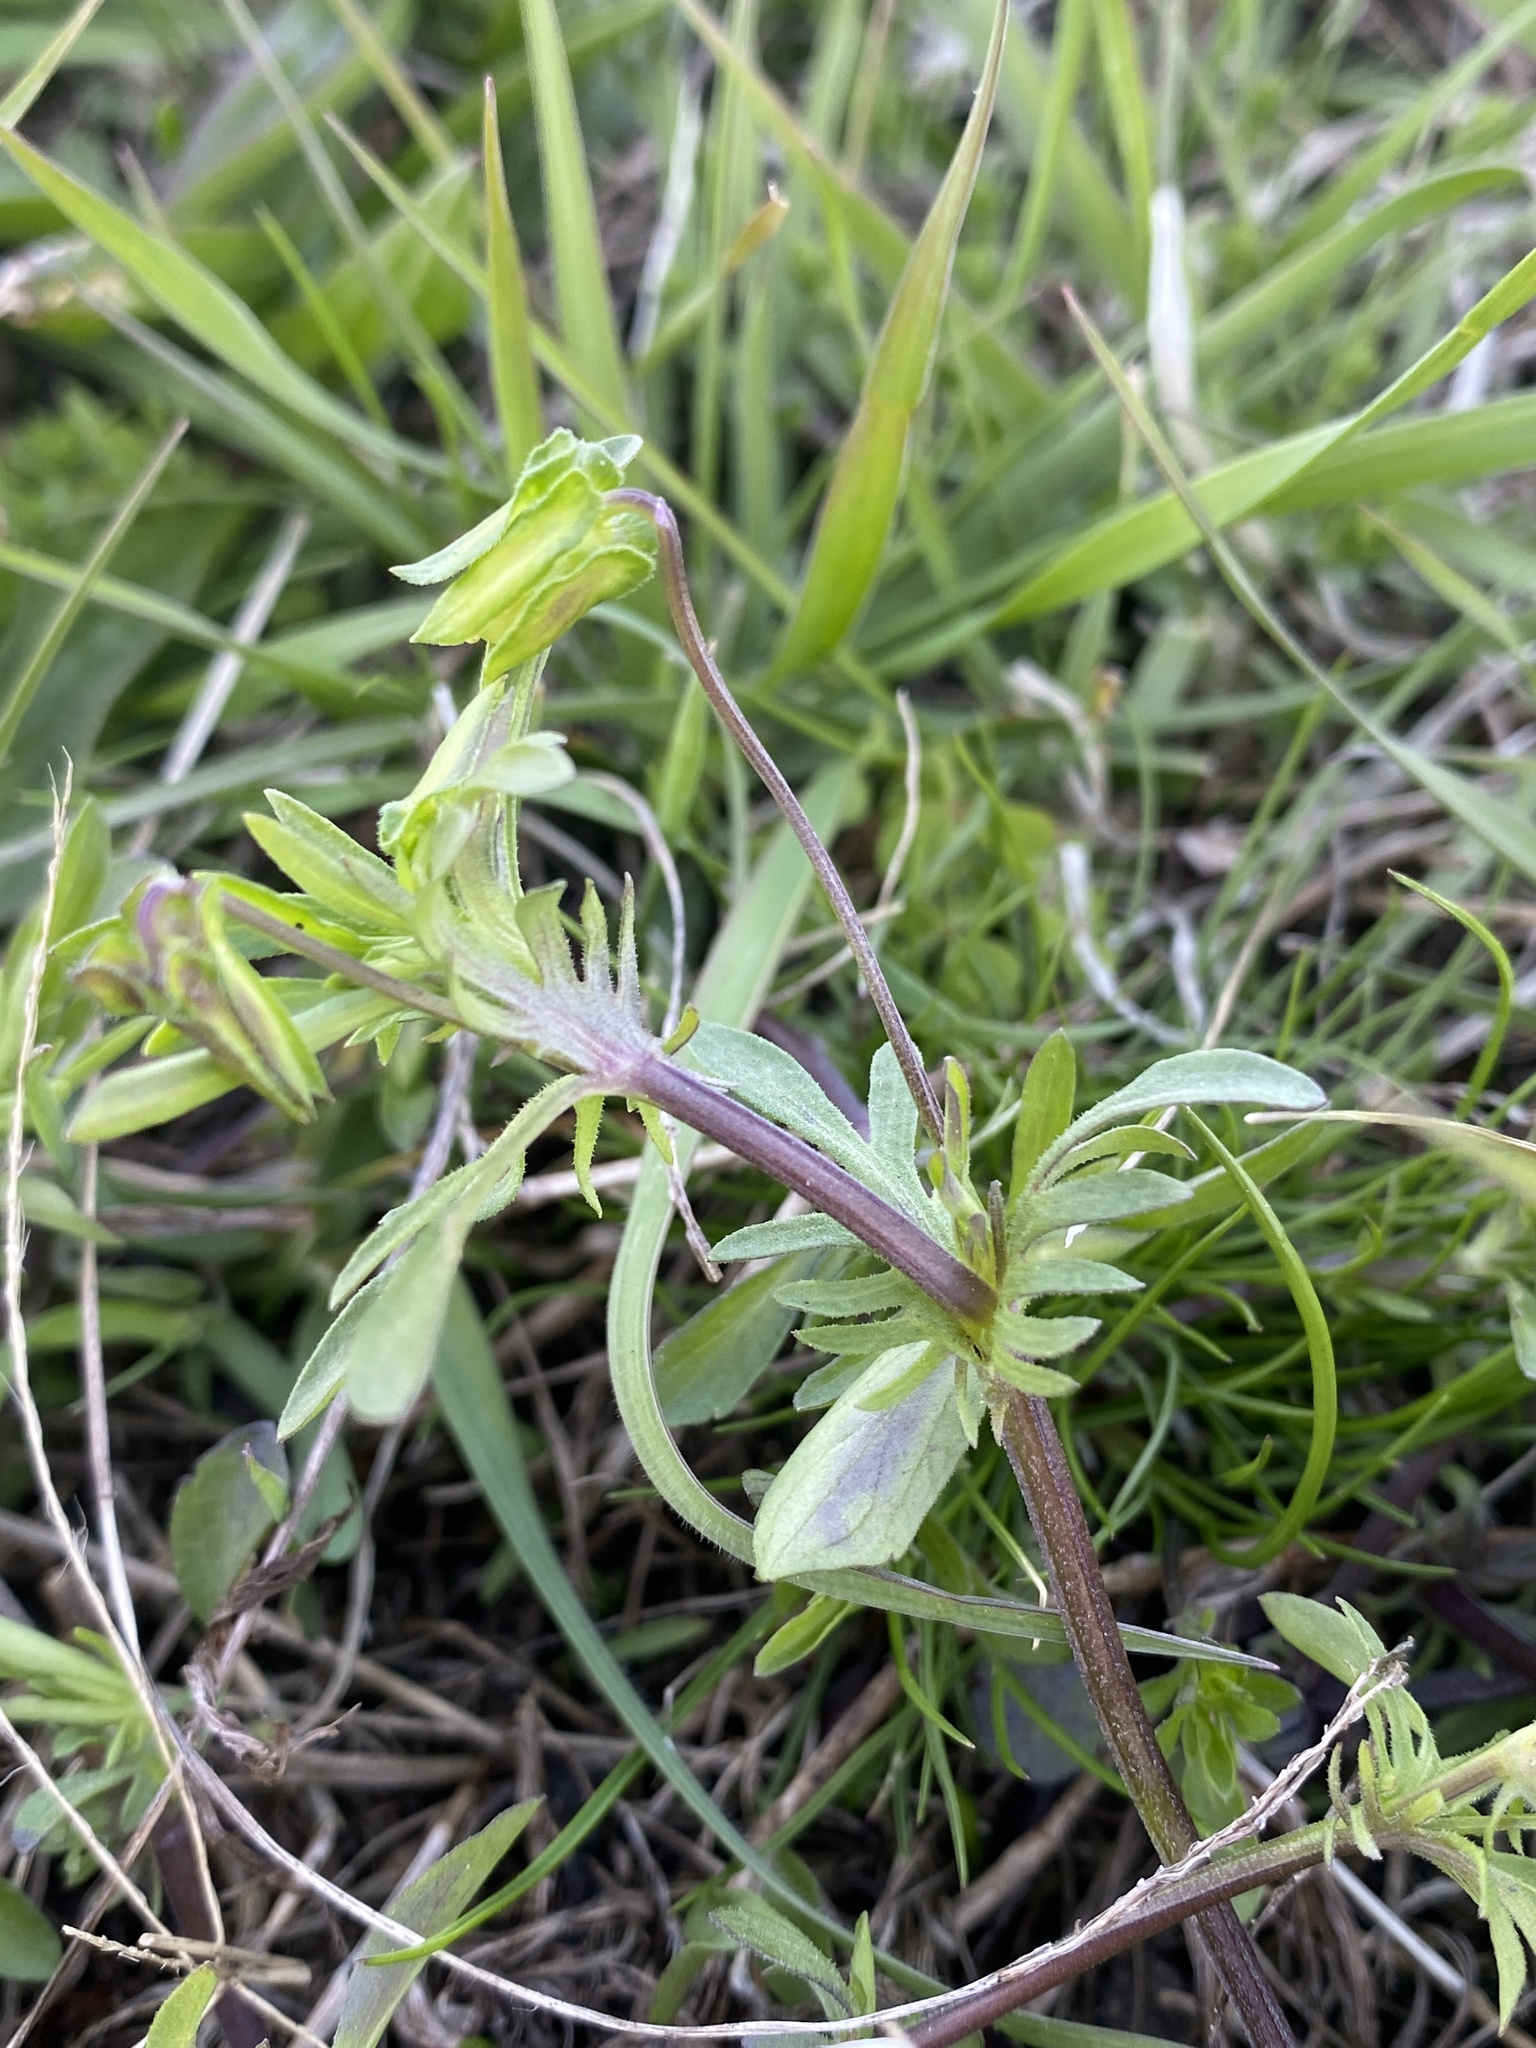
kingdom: Plantae
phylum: Tracheophyta
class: Magnoliopsida
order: Malpighiales
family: Violaceae
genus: Viola
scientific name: Viola rafinesquei
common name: American field pansy
